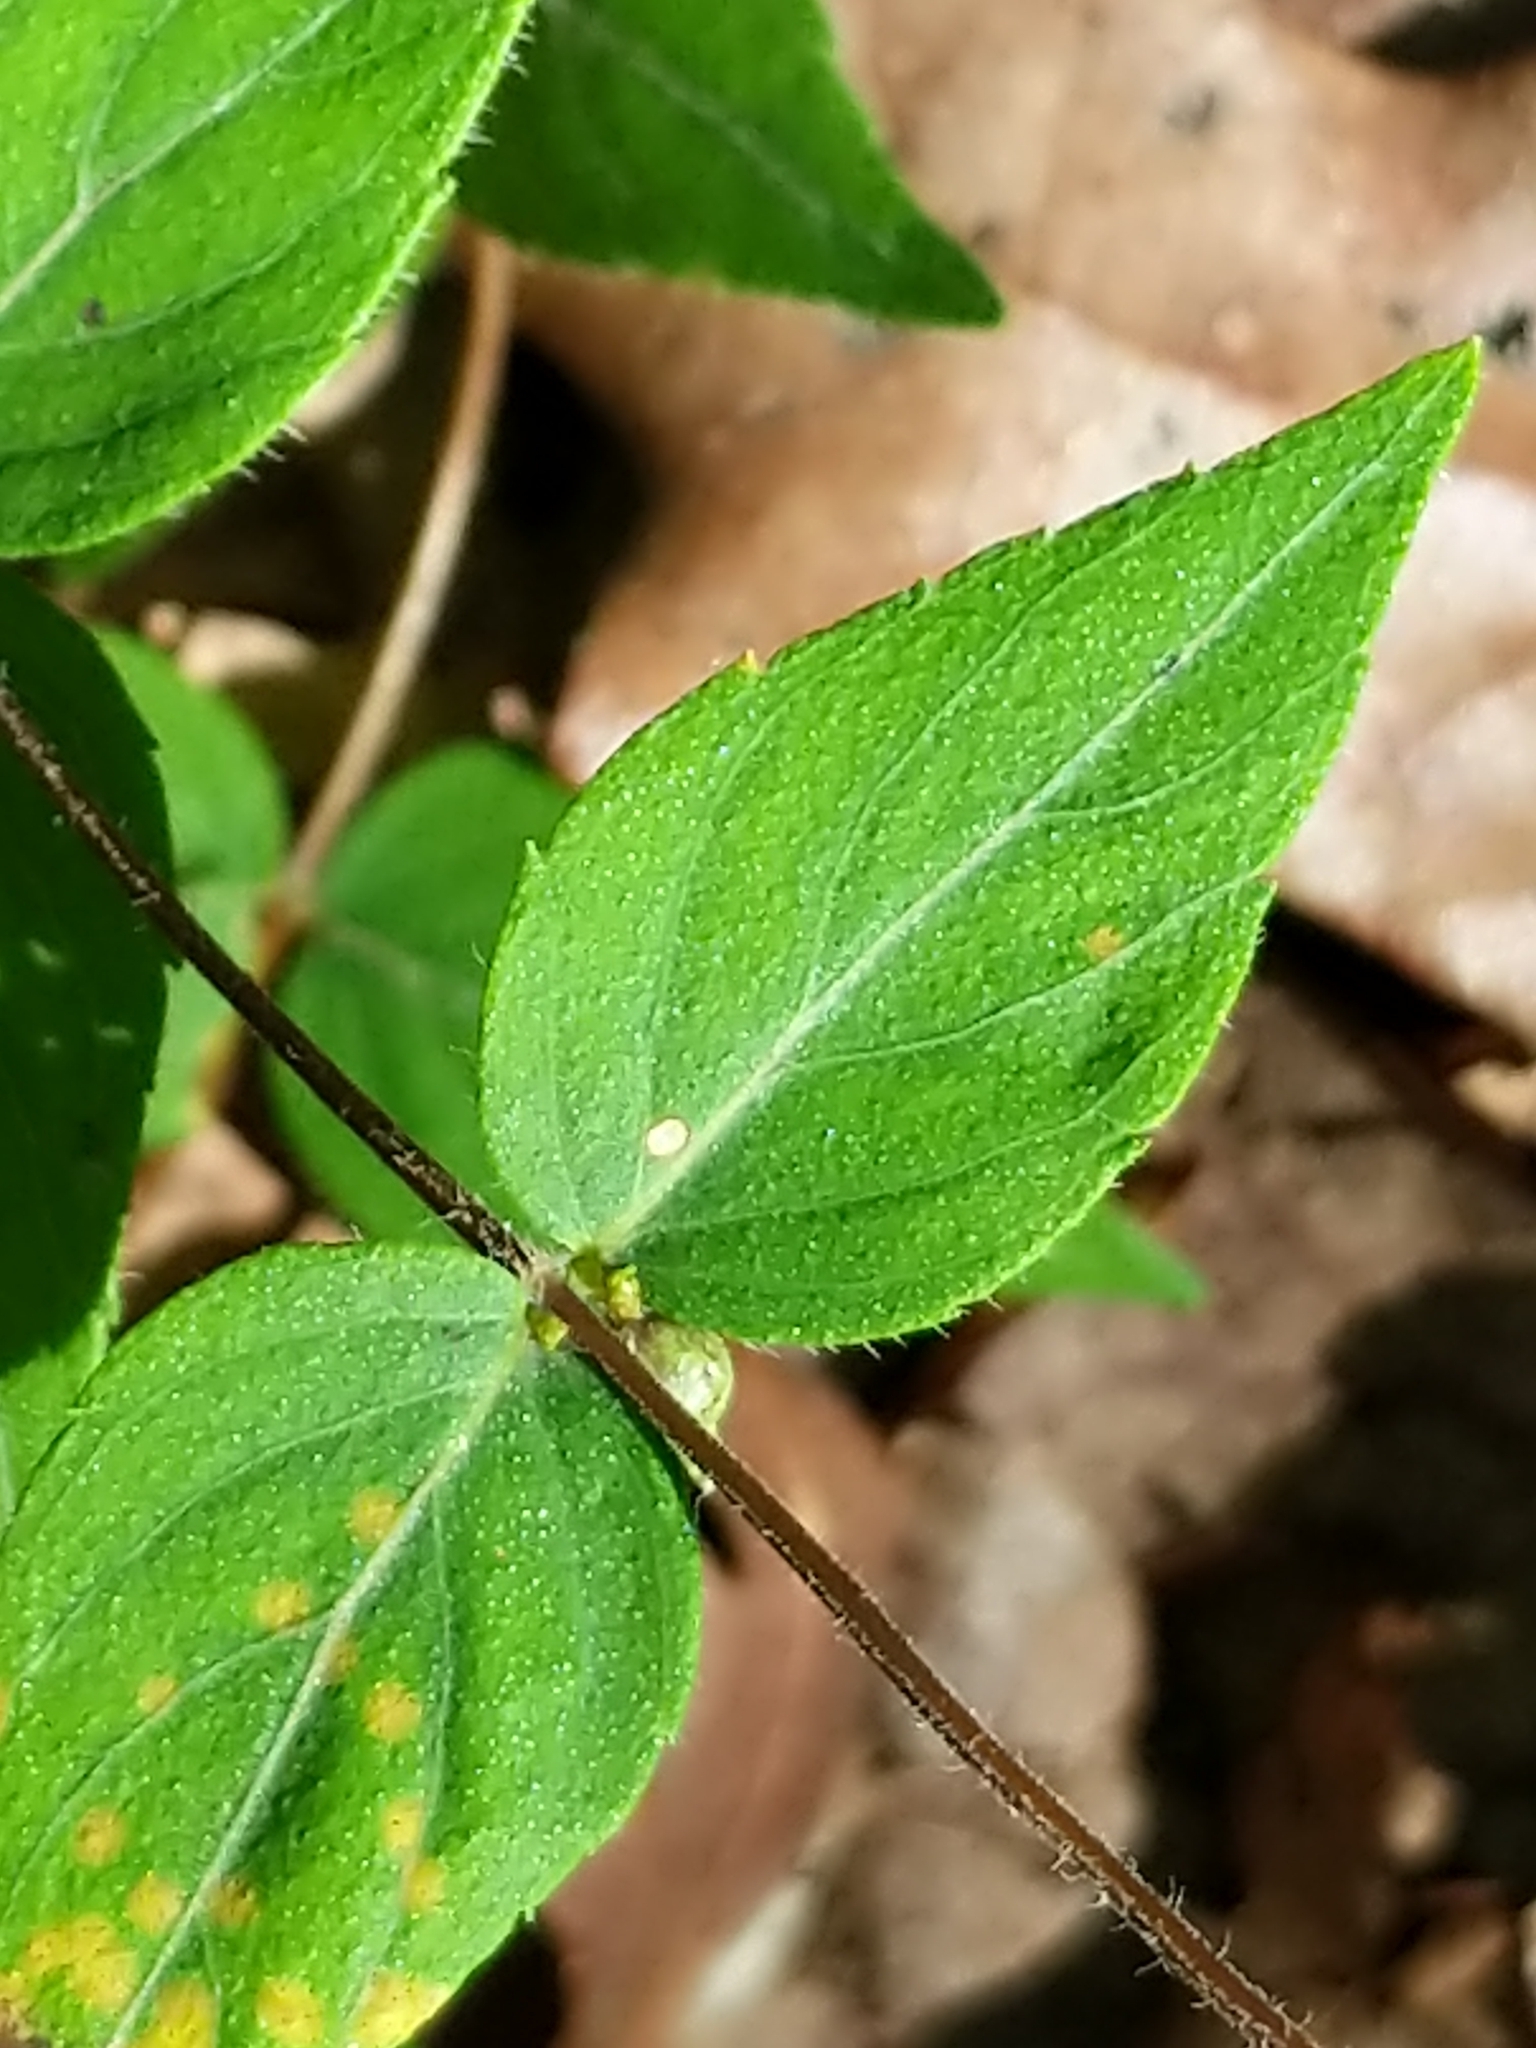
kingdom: Plantae
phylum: Tracheophyta
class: Magnoliopsida
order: Lamiales
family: Lamiaceae
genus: Cunila
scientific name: Cunila origanoides
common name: American dittany
